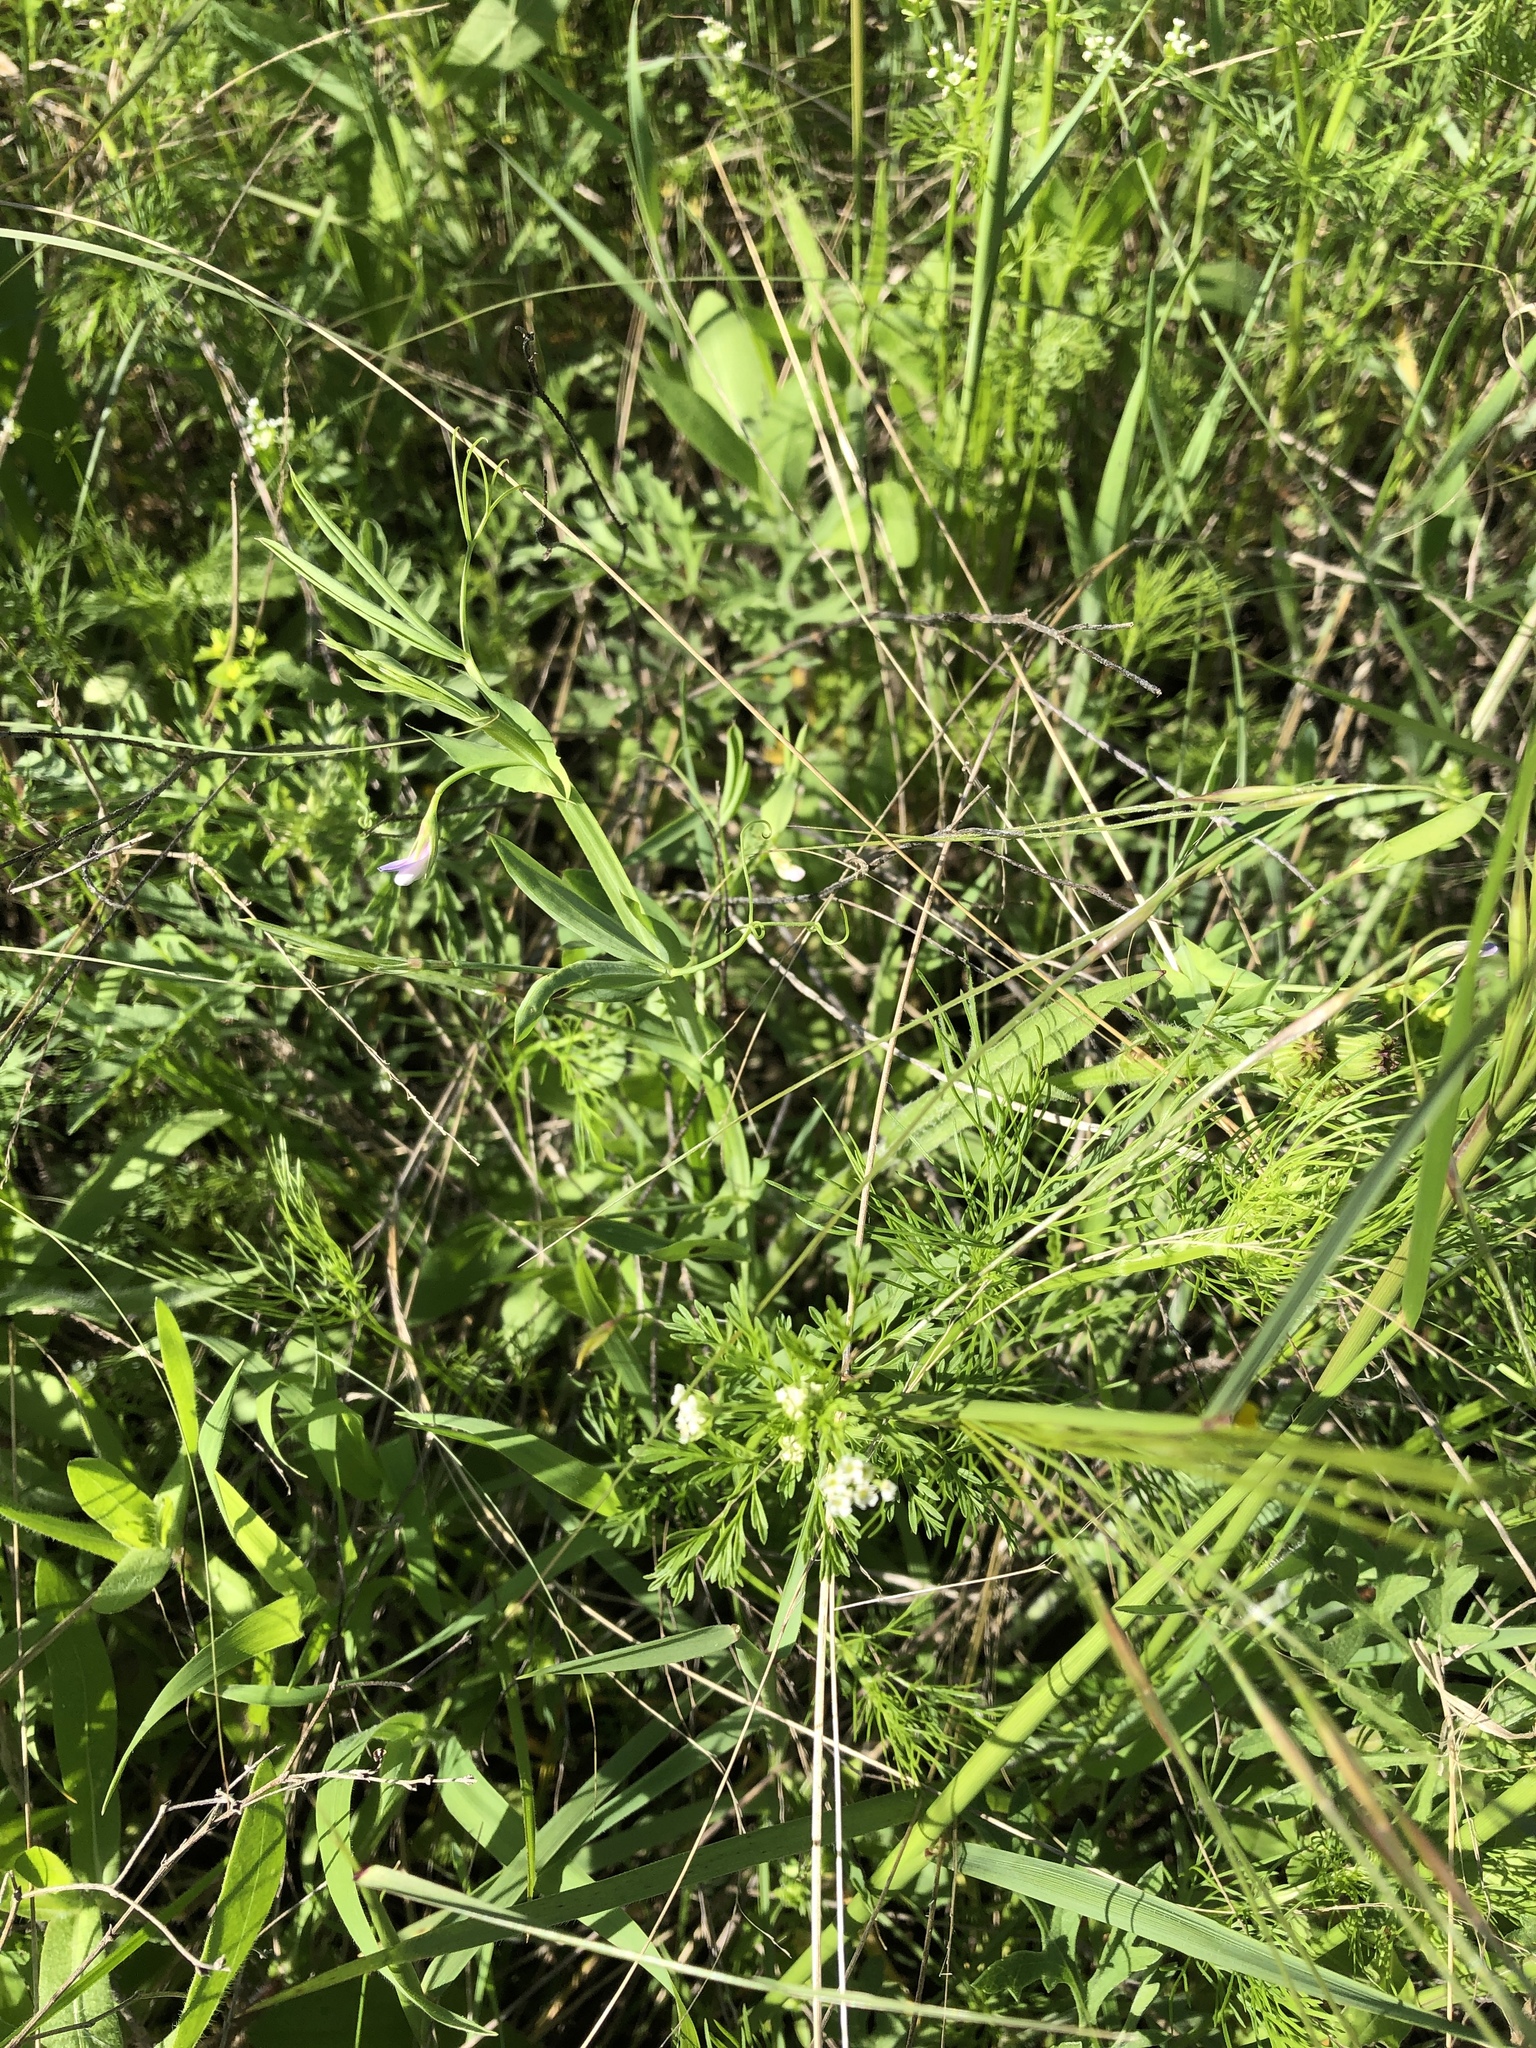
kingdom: Plantae
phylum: Tracheophyta
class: Magnoliopsida
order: Fabales
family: Fabaceae
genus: Lathyrus
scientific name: Lathyrus hirsutus
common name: Hairy vetchling
